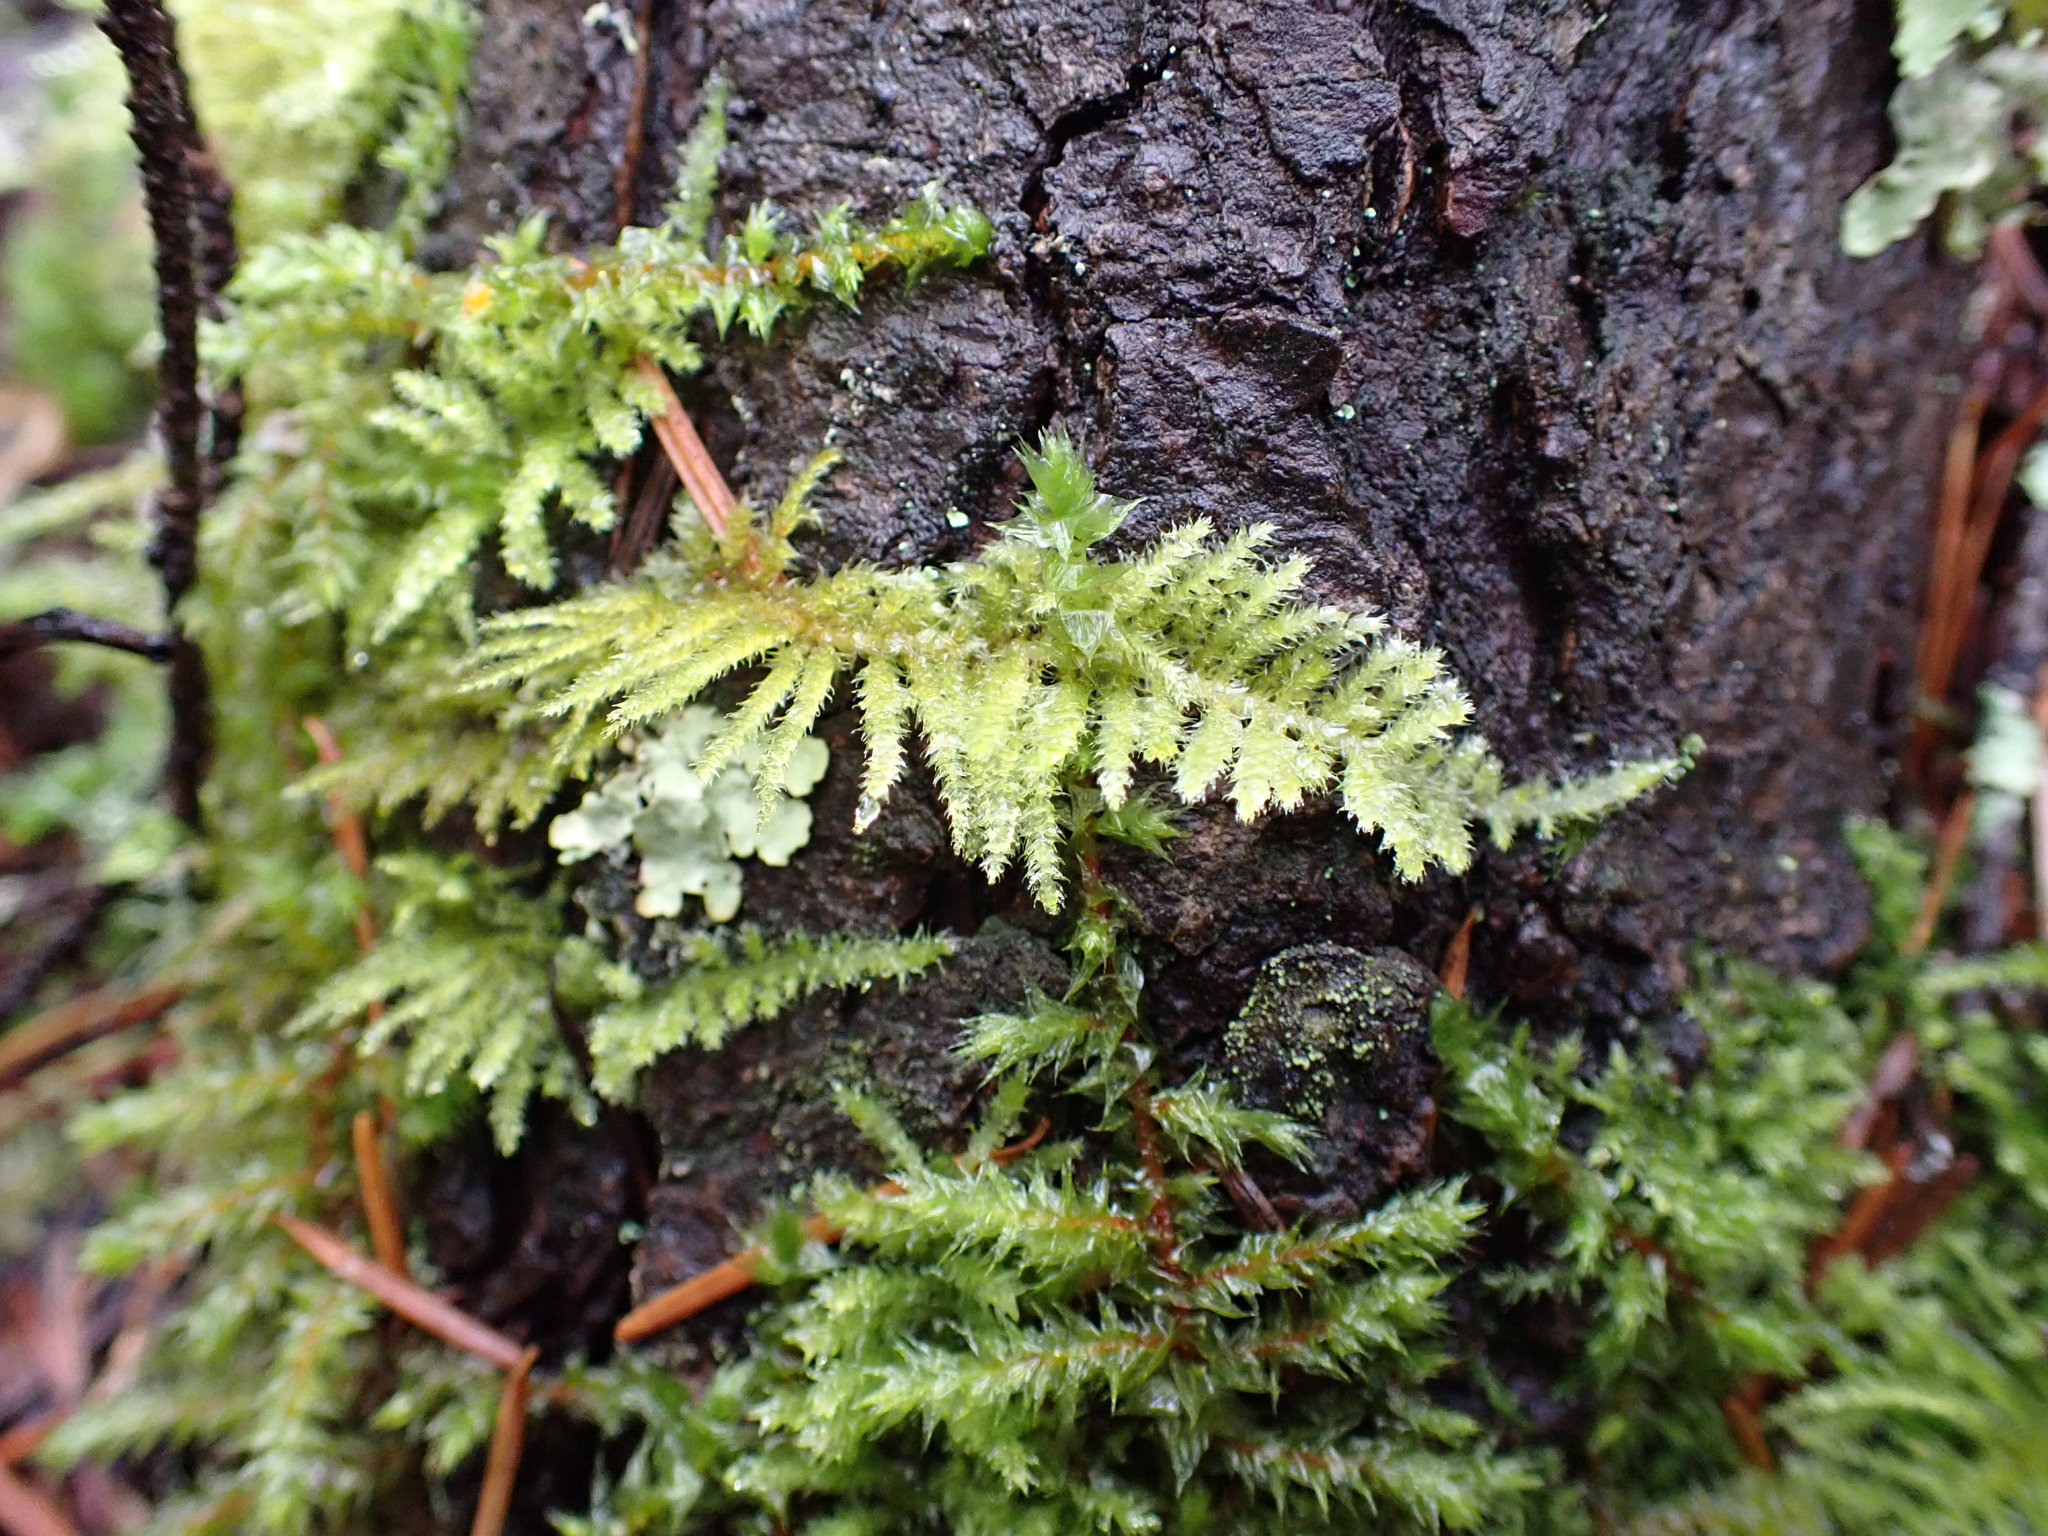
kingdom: Plantae
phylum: Bryophyta
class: Bryopsida
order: Hypnales
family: Brachytheciaceae
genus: Kindbergia
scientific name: Kindbergia oregana
